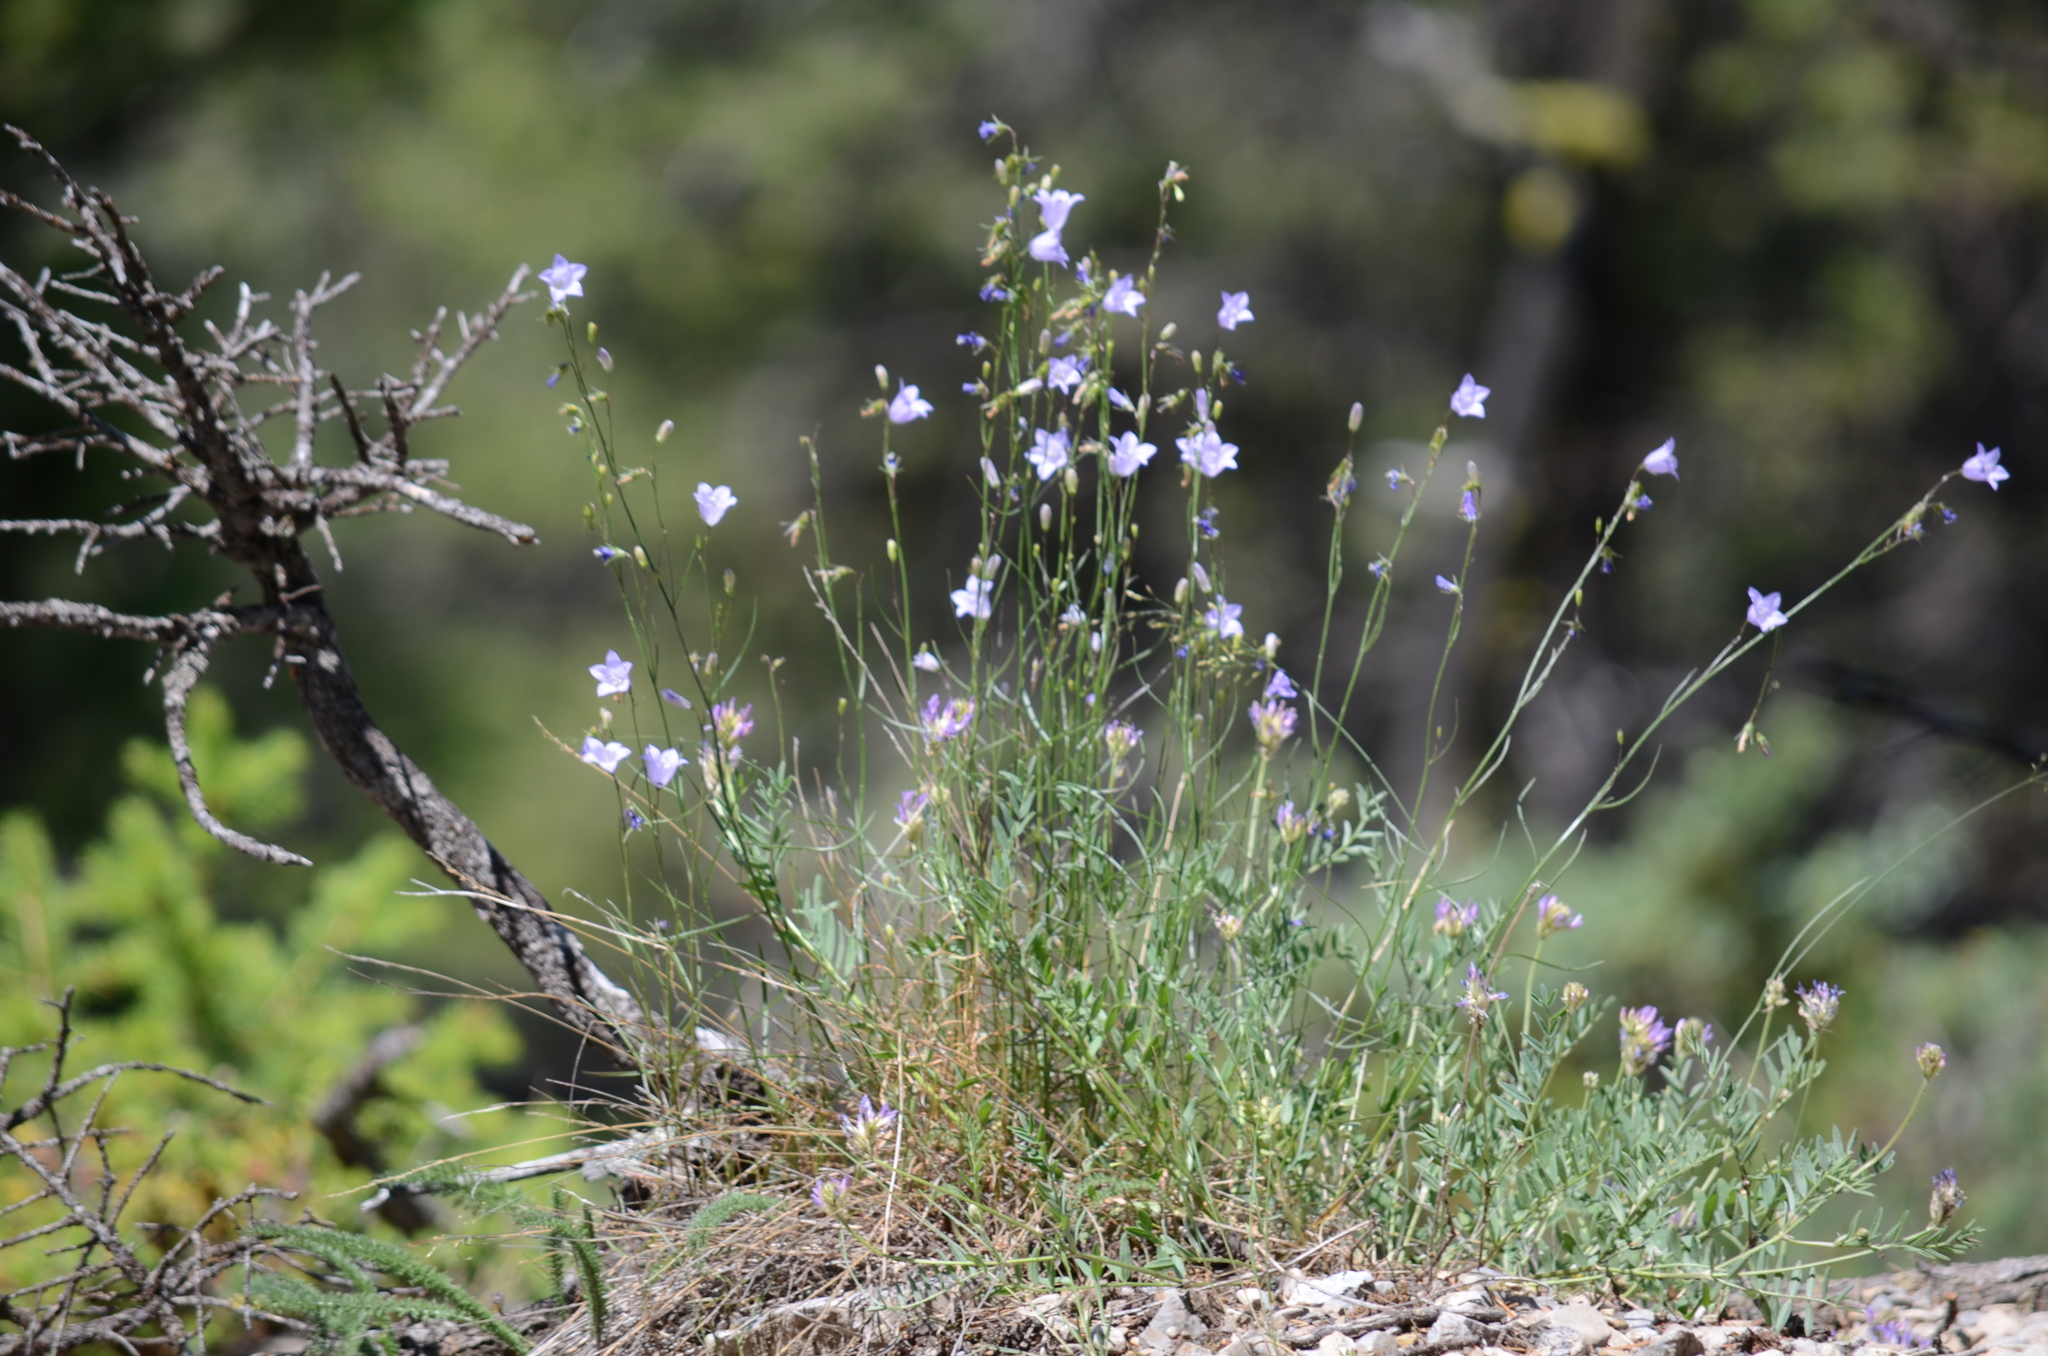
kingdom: Plantae
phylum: Tracheophyta
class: Magnoliopsida
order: Asterales
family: Campanulaceae
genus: Campanula
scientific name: Campanula alaskana
